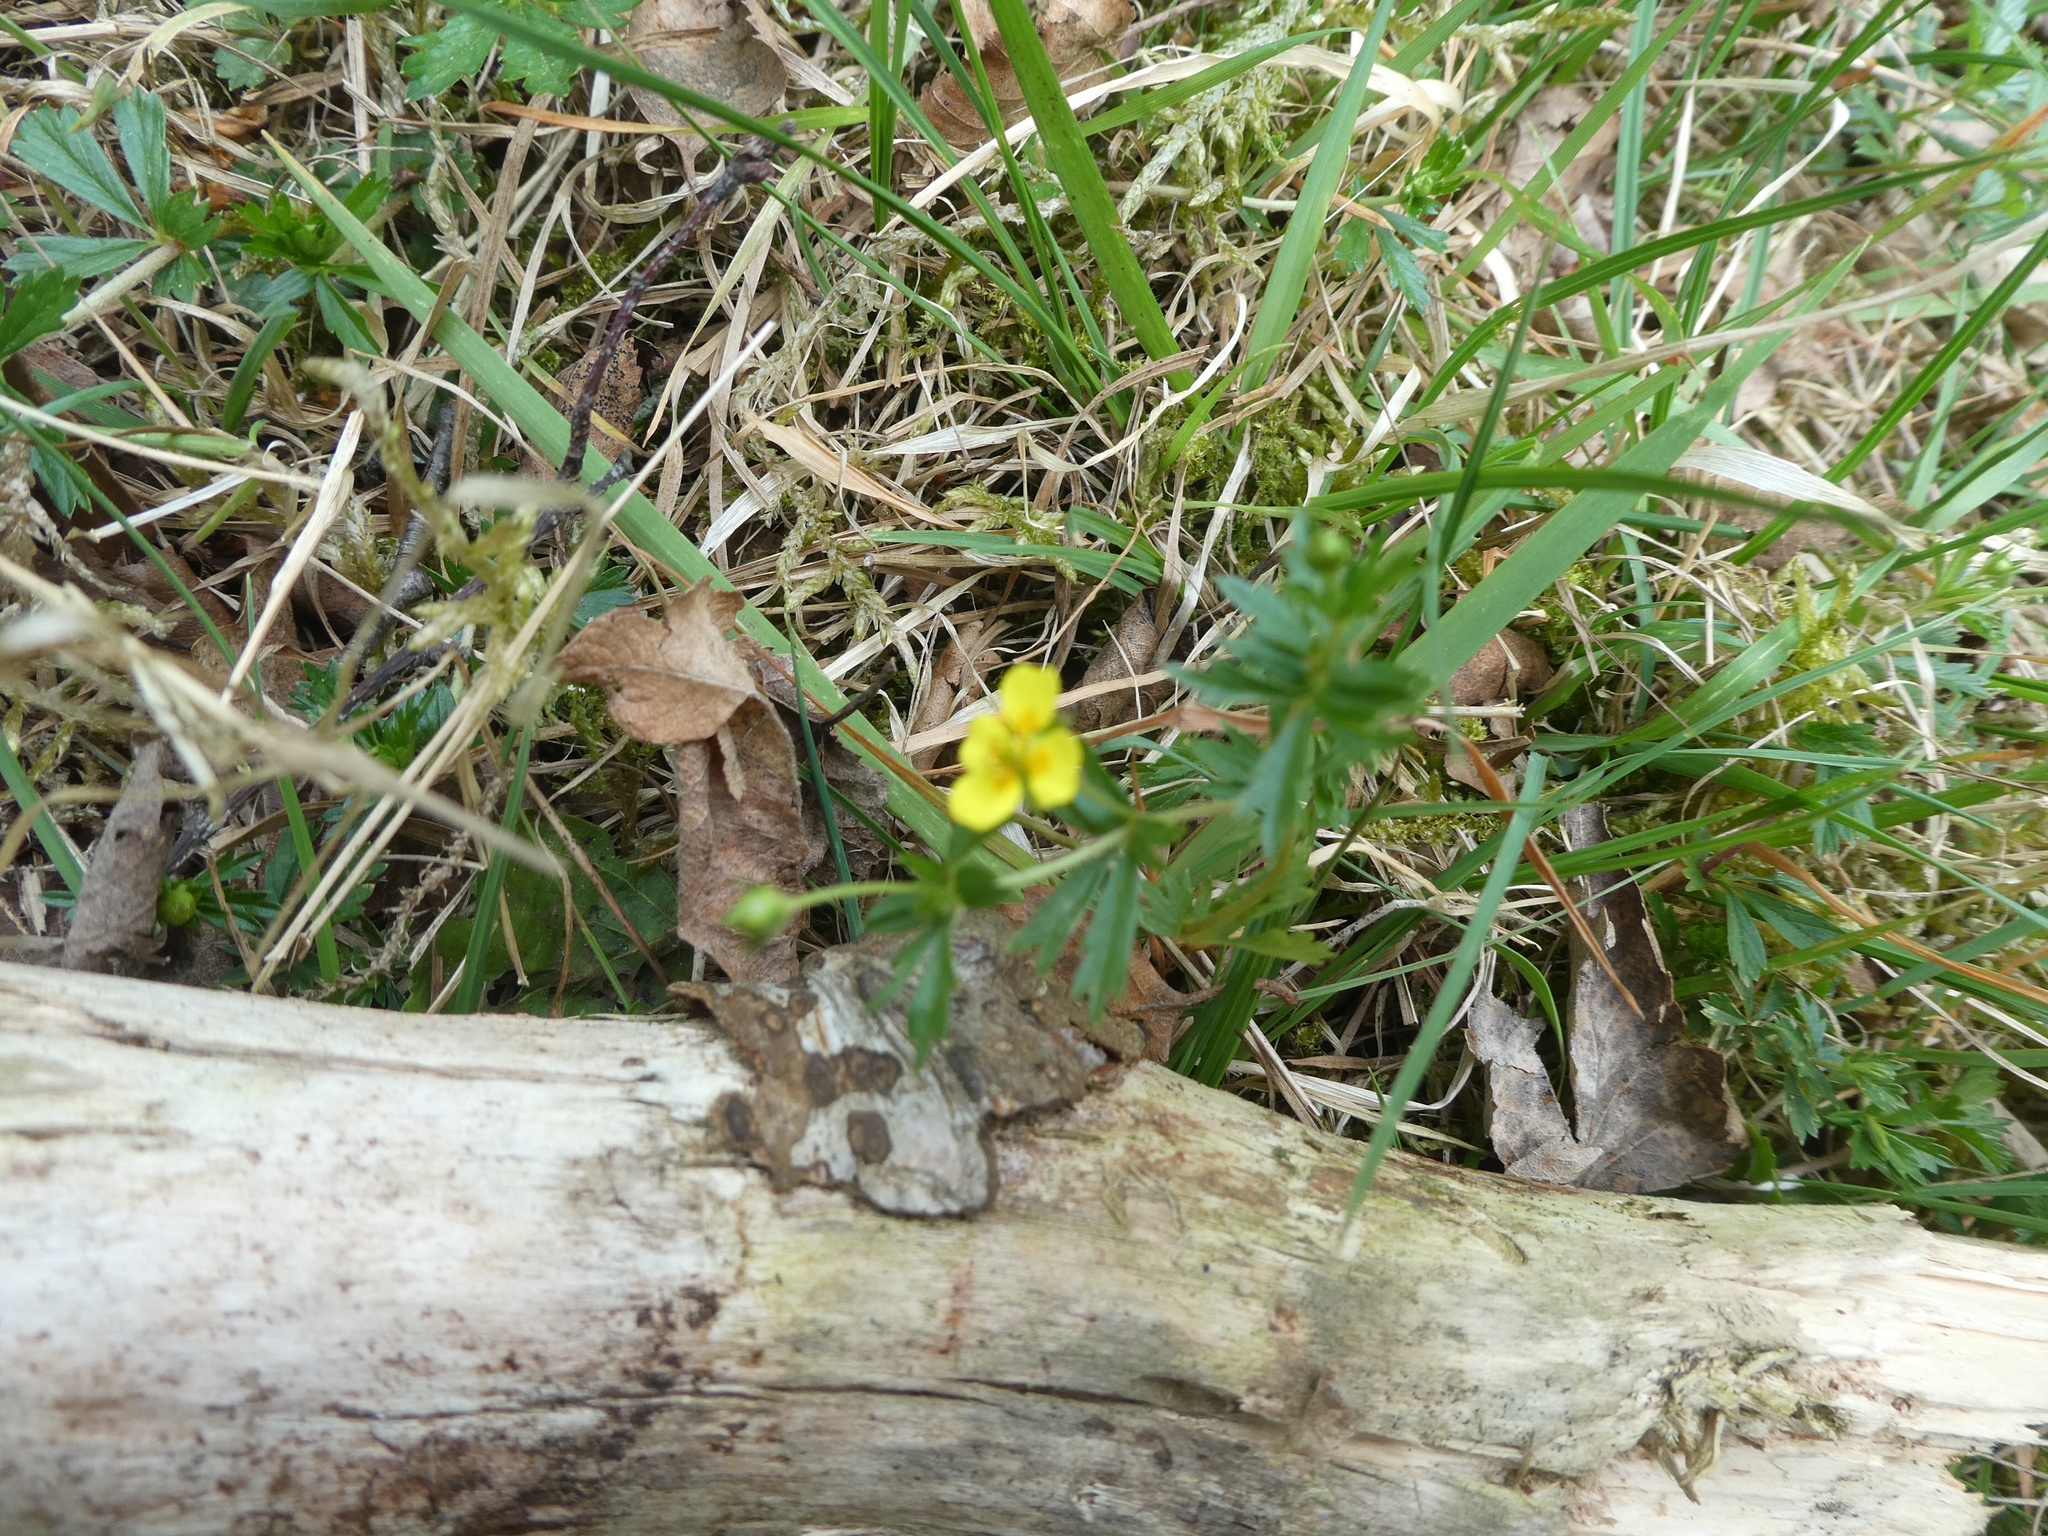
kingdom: Plantae
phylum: Tracheophyta
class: Magnoliopsida
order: Rosales
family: Rosaceae
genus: Potentilla
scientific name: Potentilla erecta
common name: Tormentil
